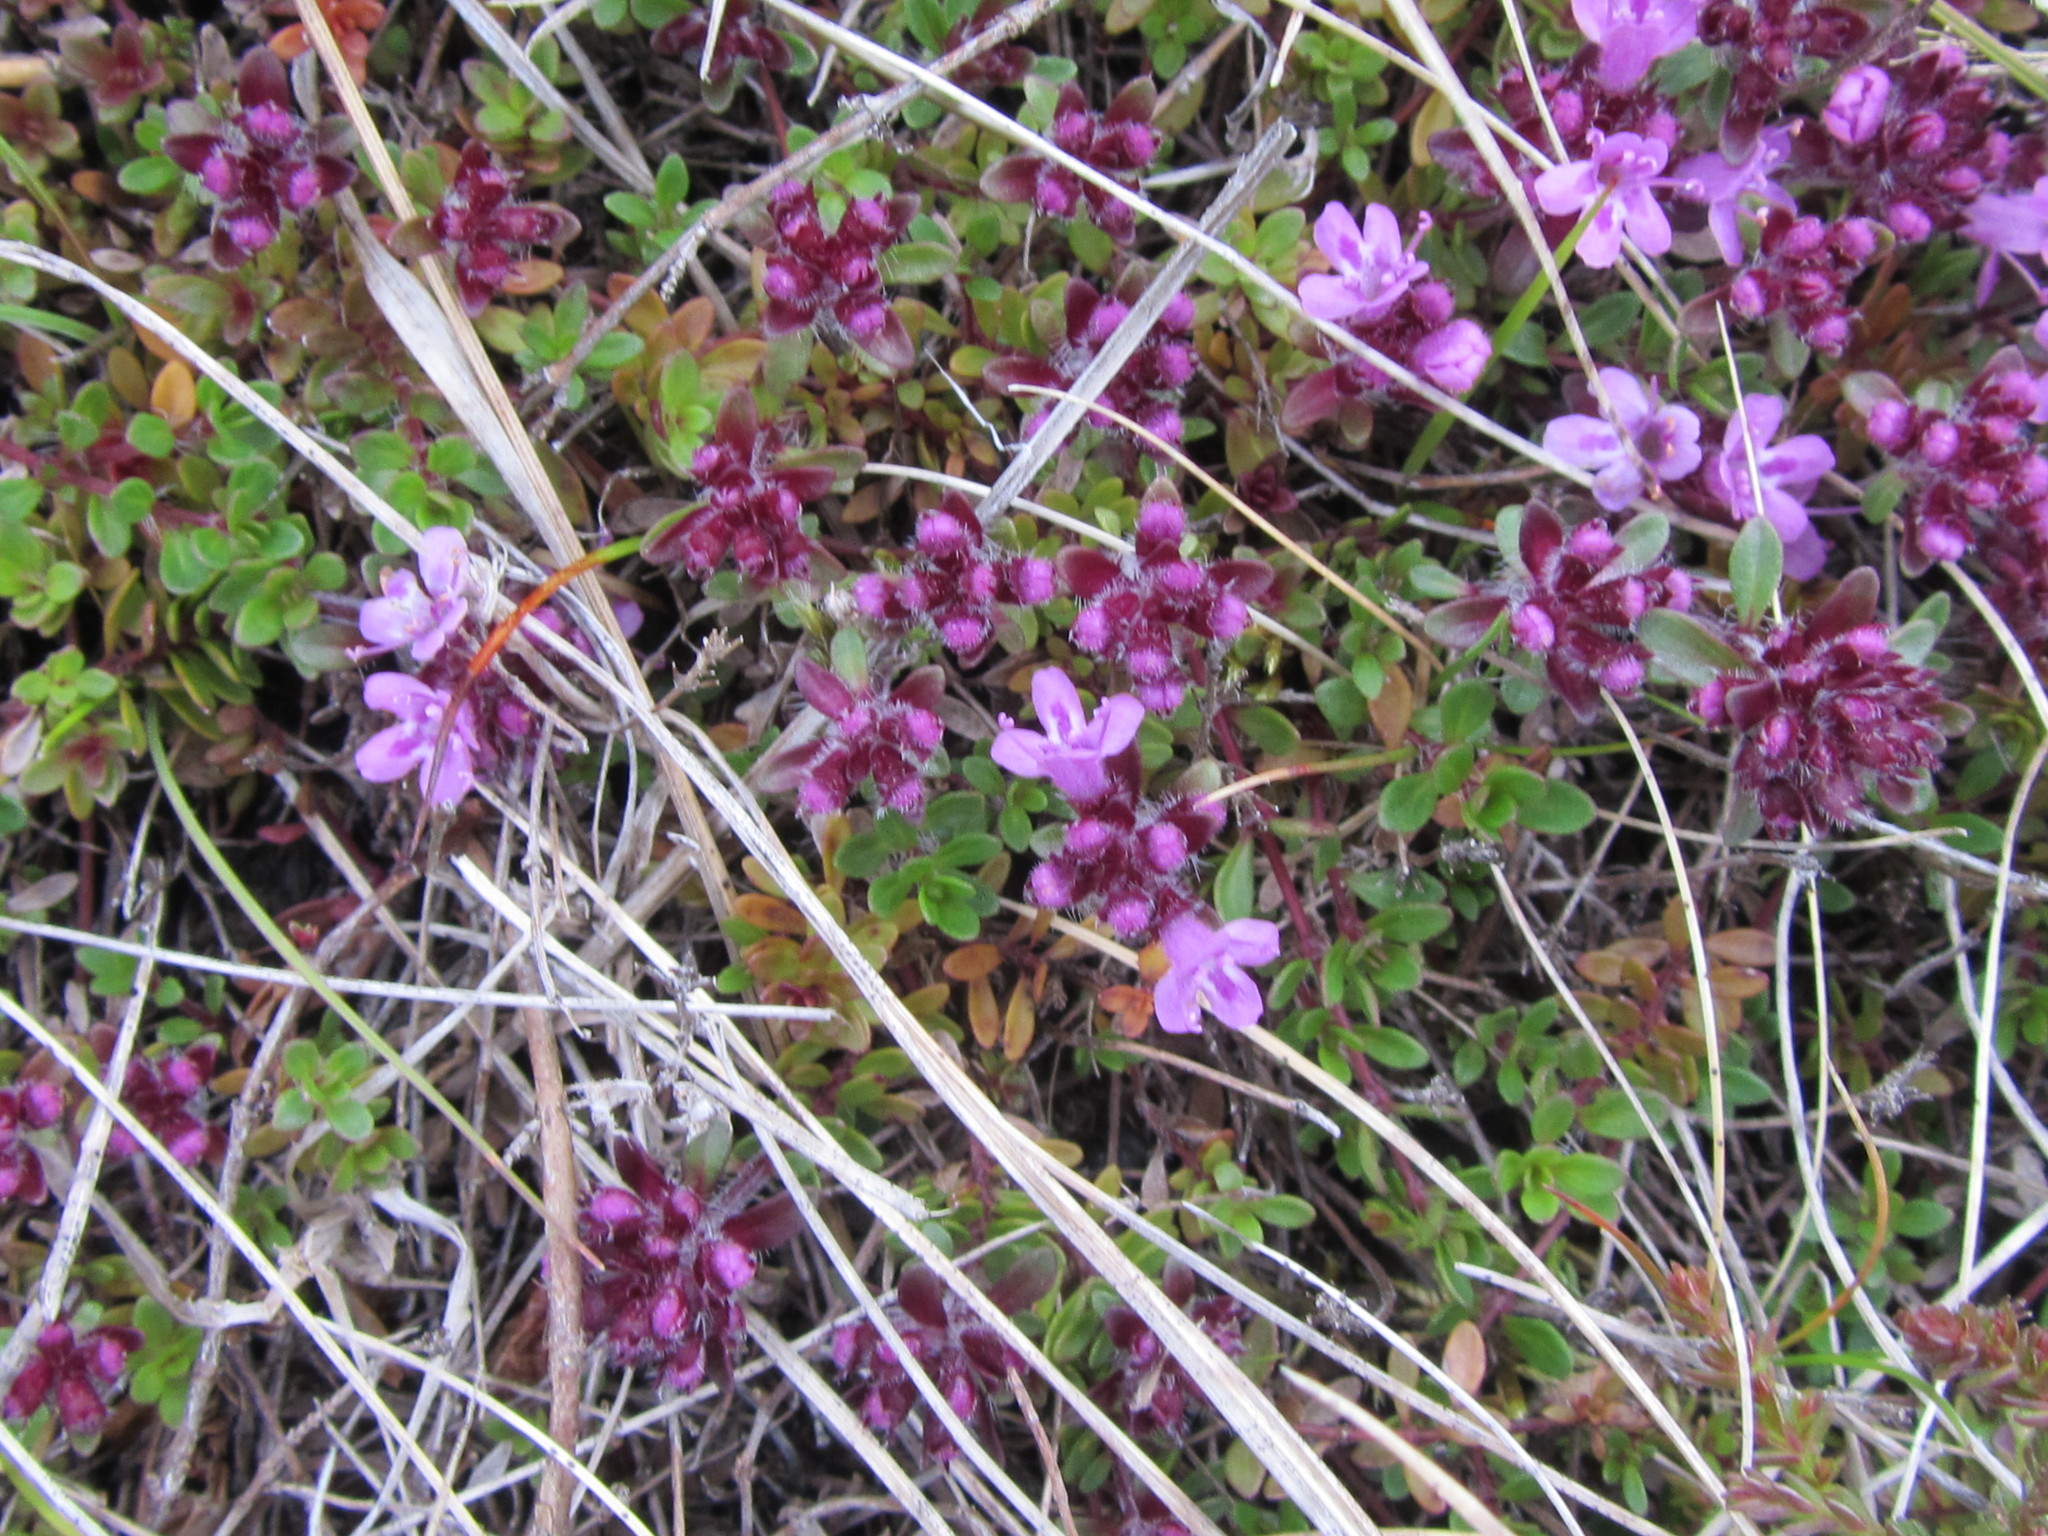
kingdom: Plantae
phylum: Tracheophyta
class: Magnoliopsida
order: Lamiales
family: Lamiaceae
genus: Thymus
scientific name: Thymus praecox
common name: Wild thyme
